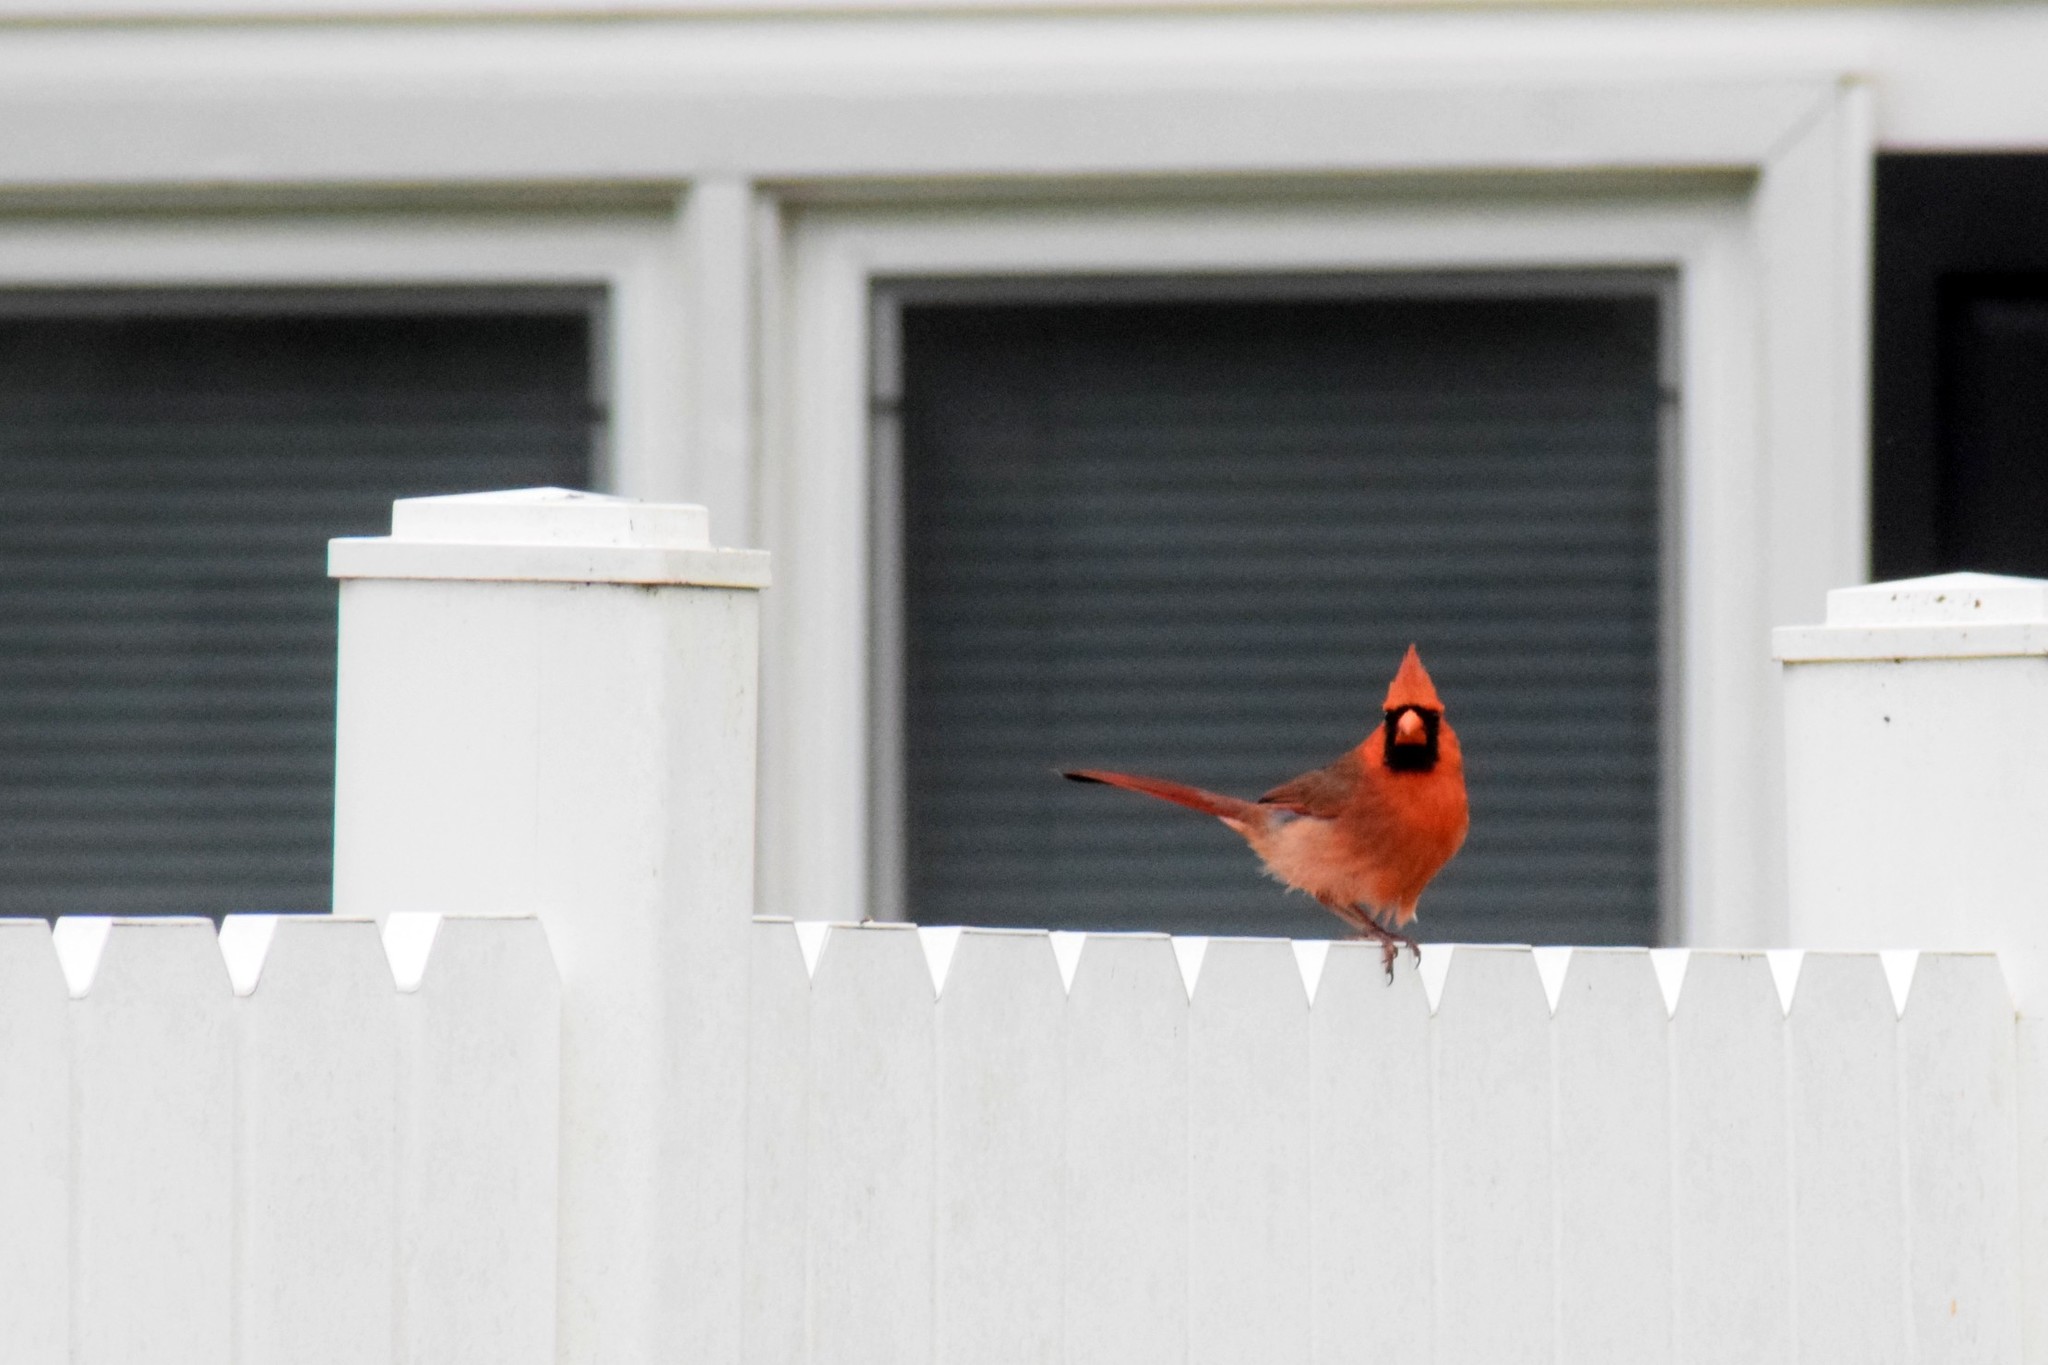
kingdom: Animalia
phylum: Chordata
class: Aves
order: Passeriformes
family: Cardinalidae
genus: Cardinalis
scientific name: Cardinalis cardinalis
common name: Northern cardinal
